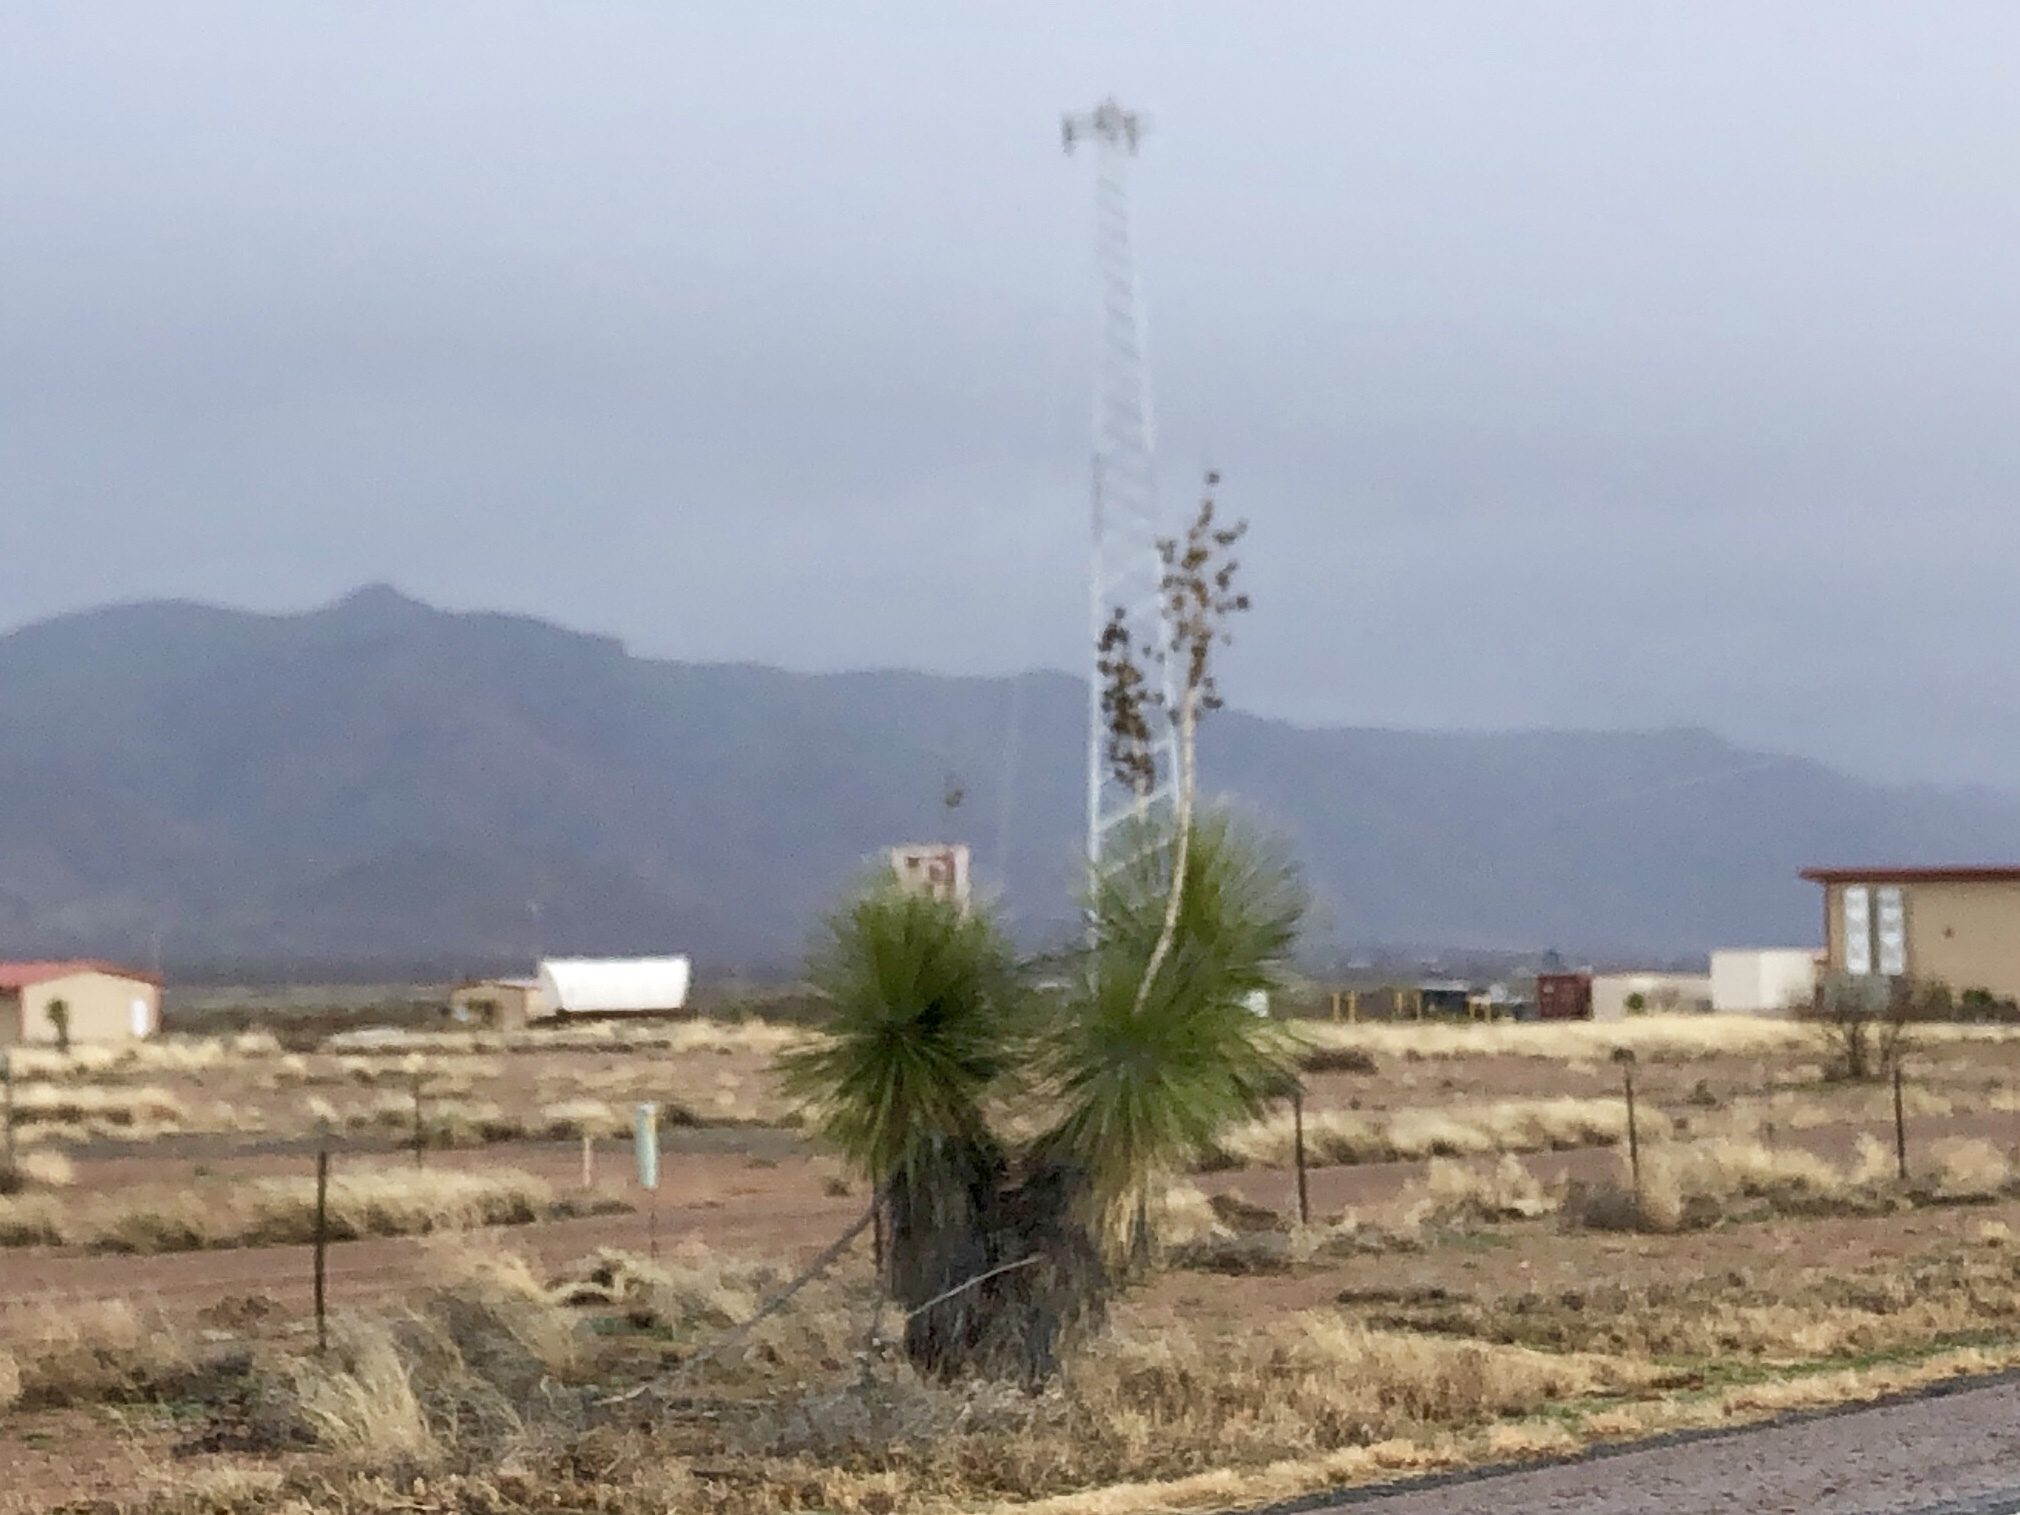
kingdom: Plantae
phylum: Tracheophyta
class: Liliopsida
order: Asparagales
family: Asparagaceae
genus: Yucca
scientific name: Yucca elata
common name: Palmella
